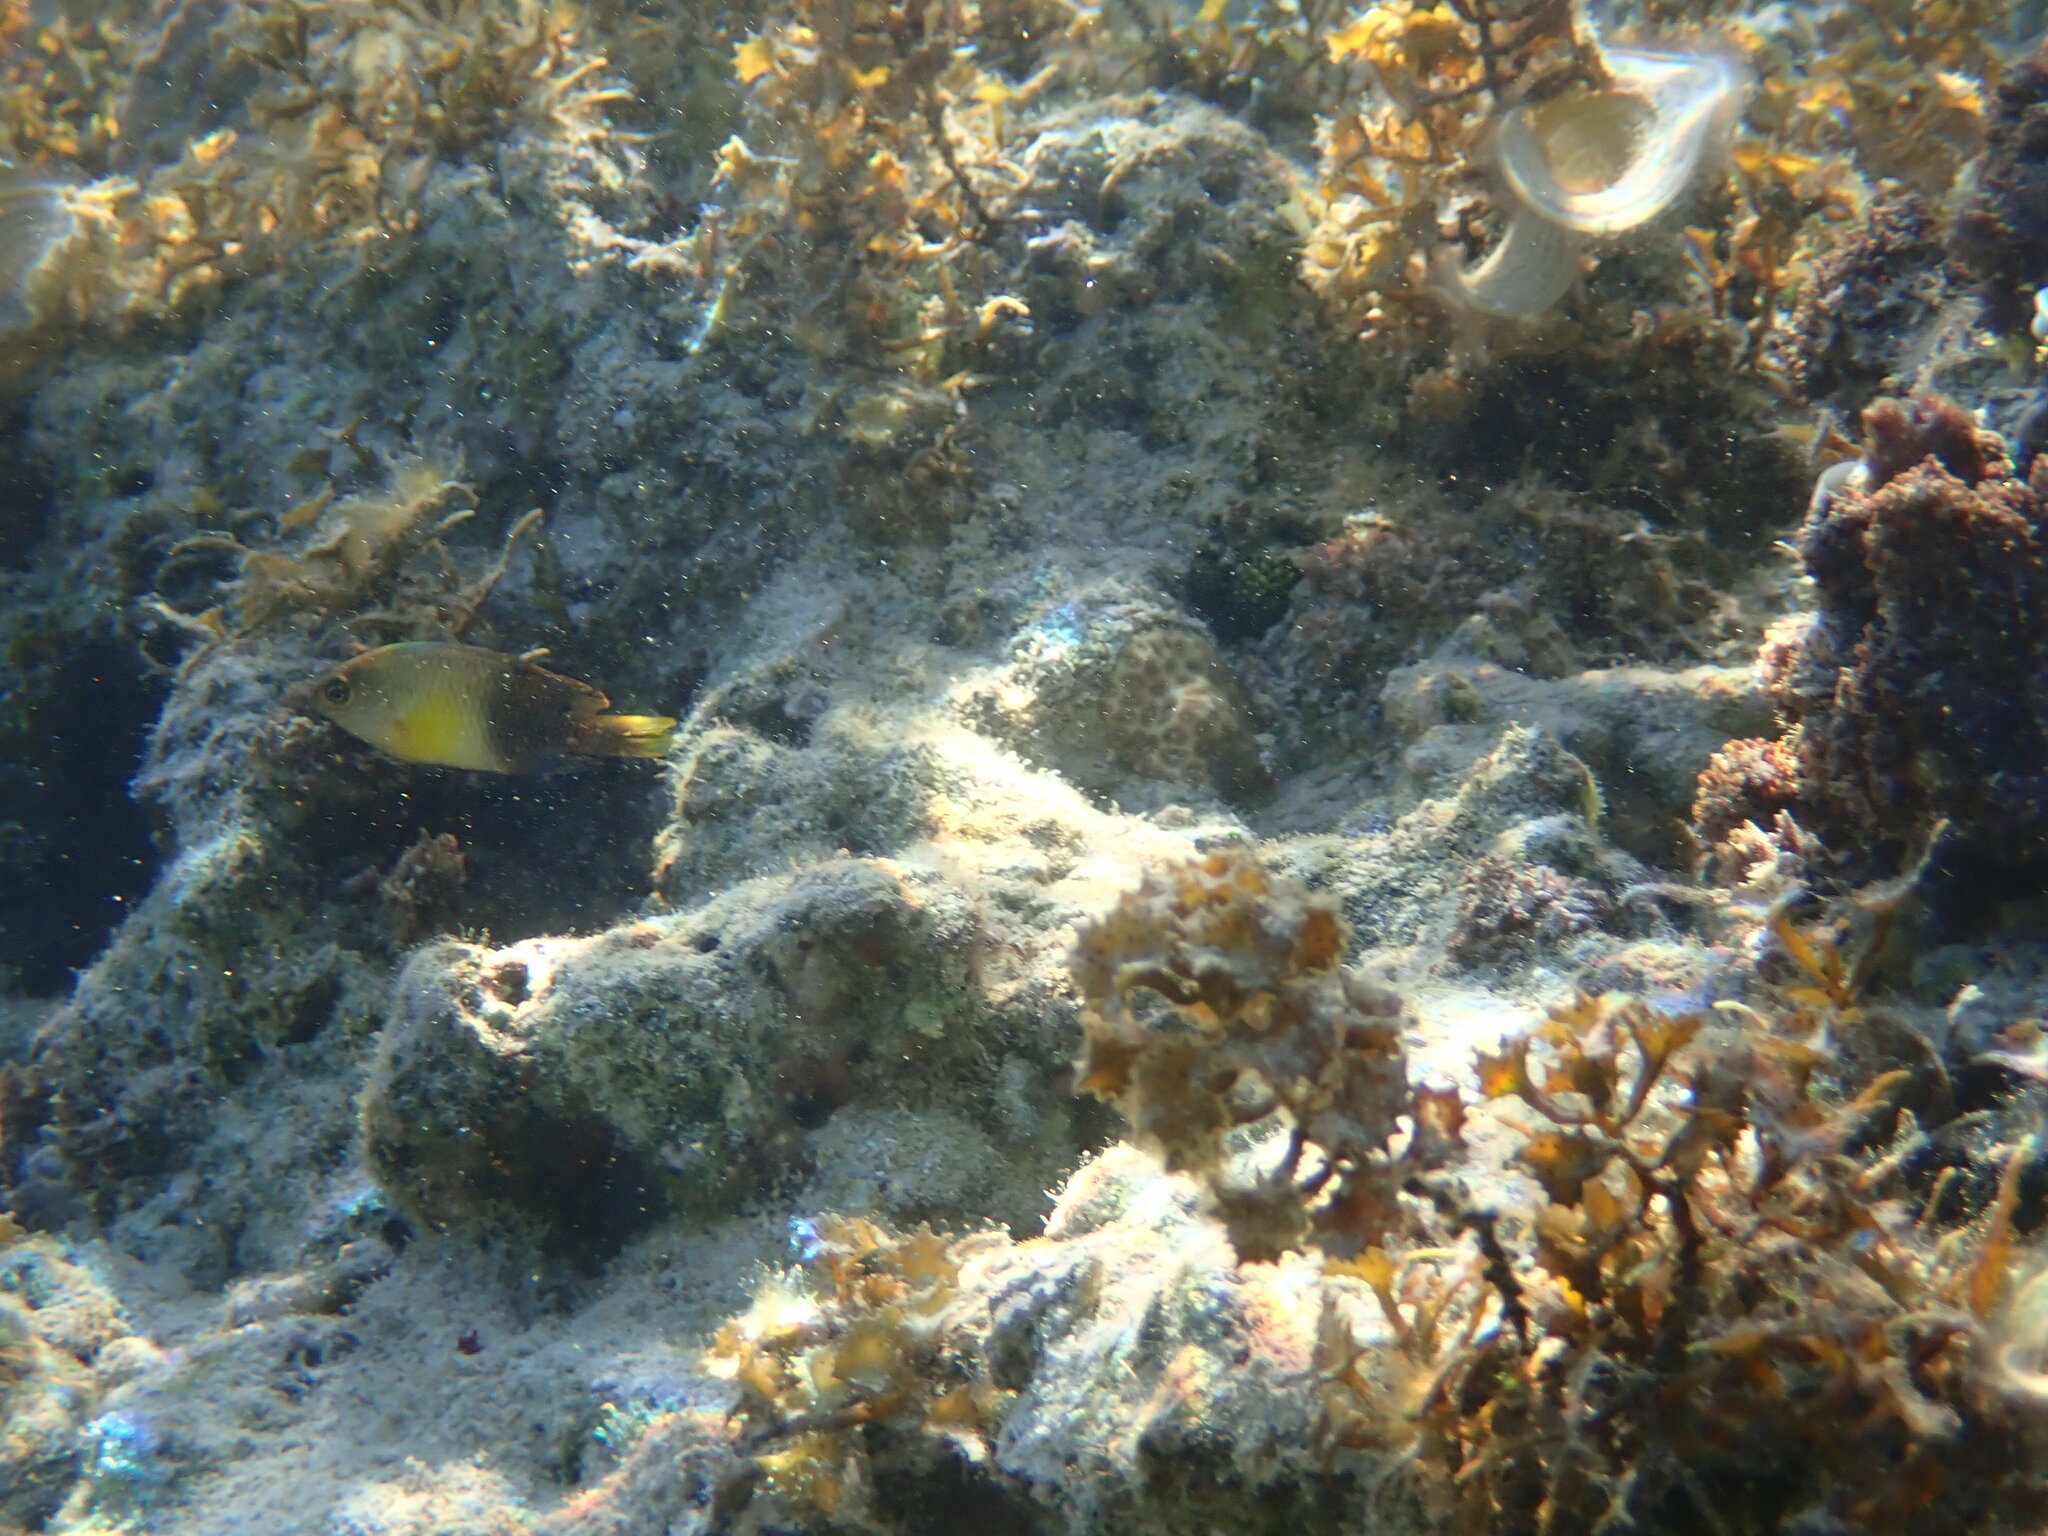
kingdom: Animalia
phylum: Chordata
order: Perciformes
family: Pomacentridae
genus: Chrysiptera
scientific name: Chrysiptera unimaculata
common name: Onespot demoiselle
